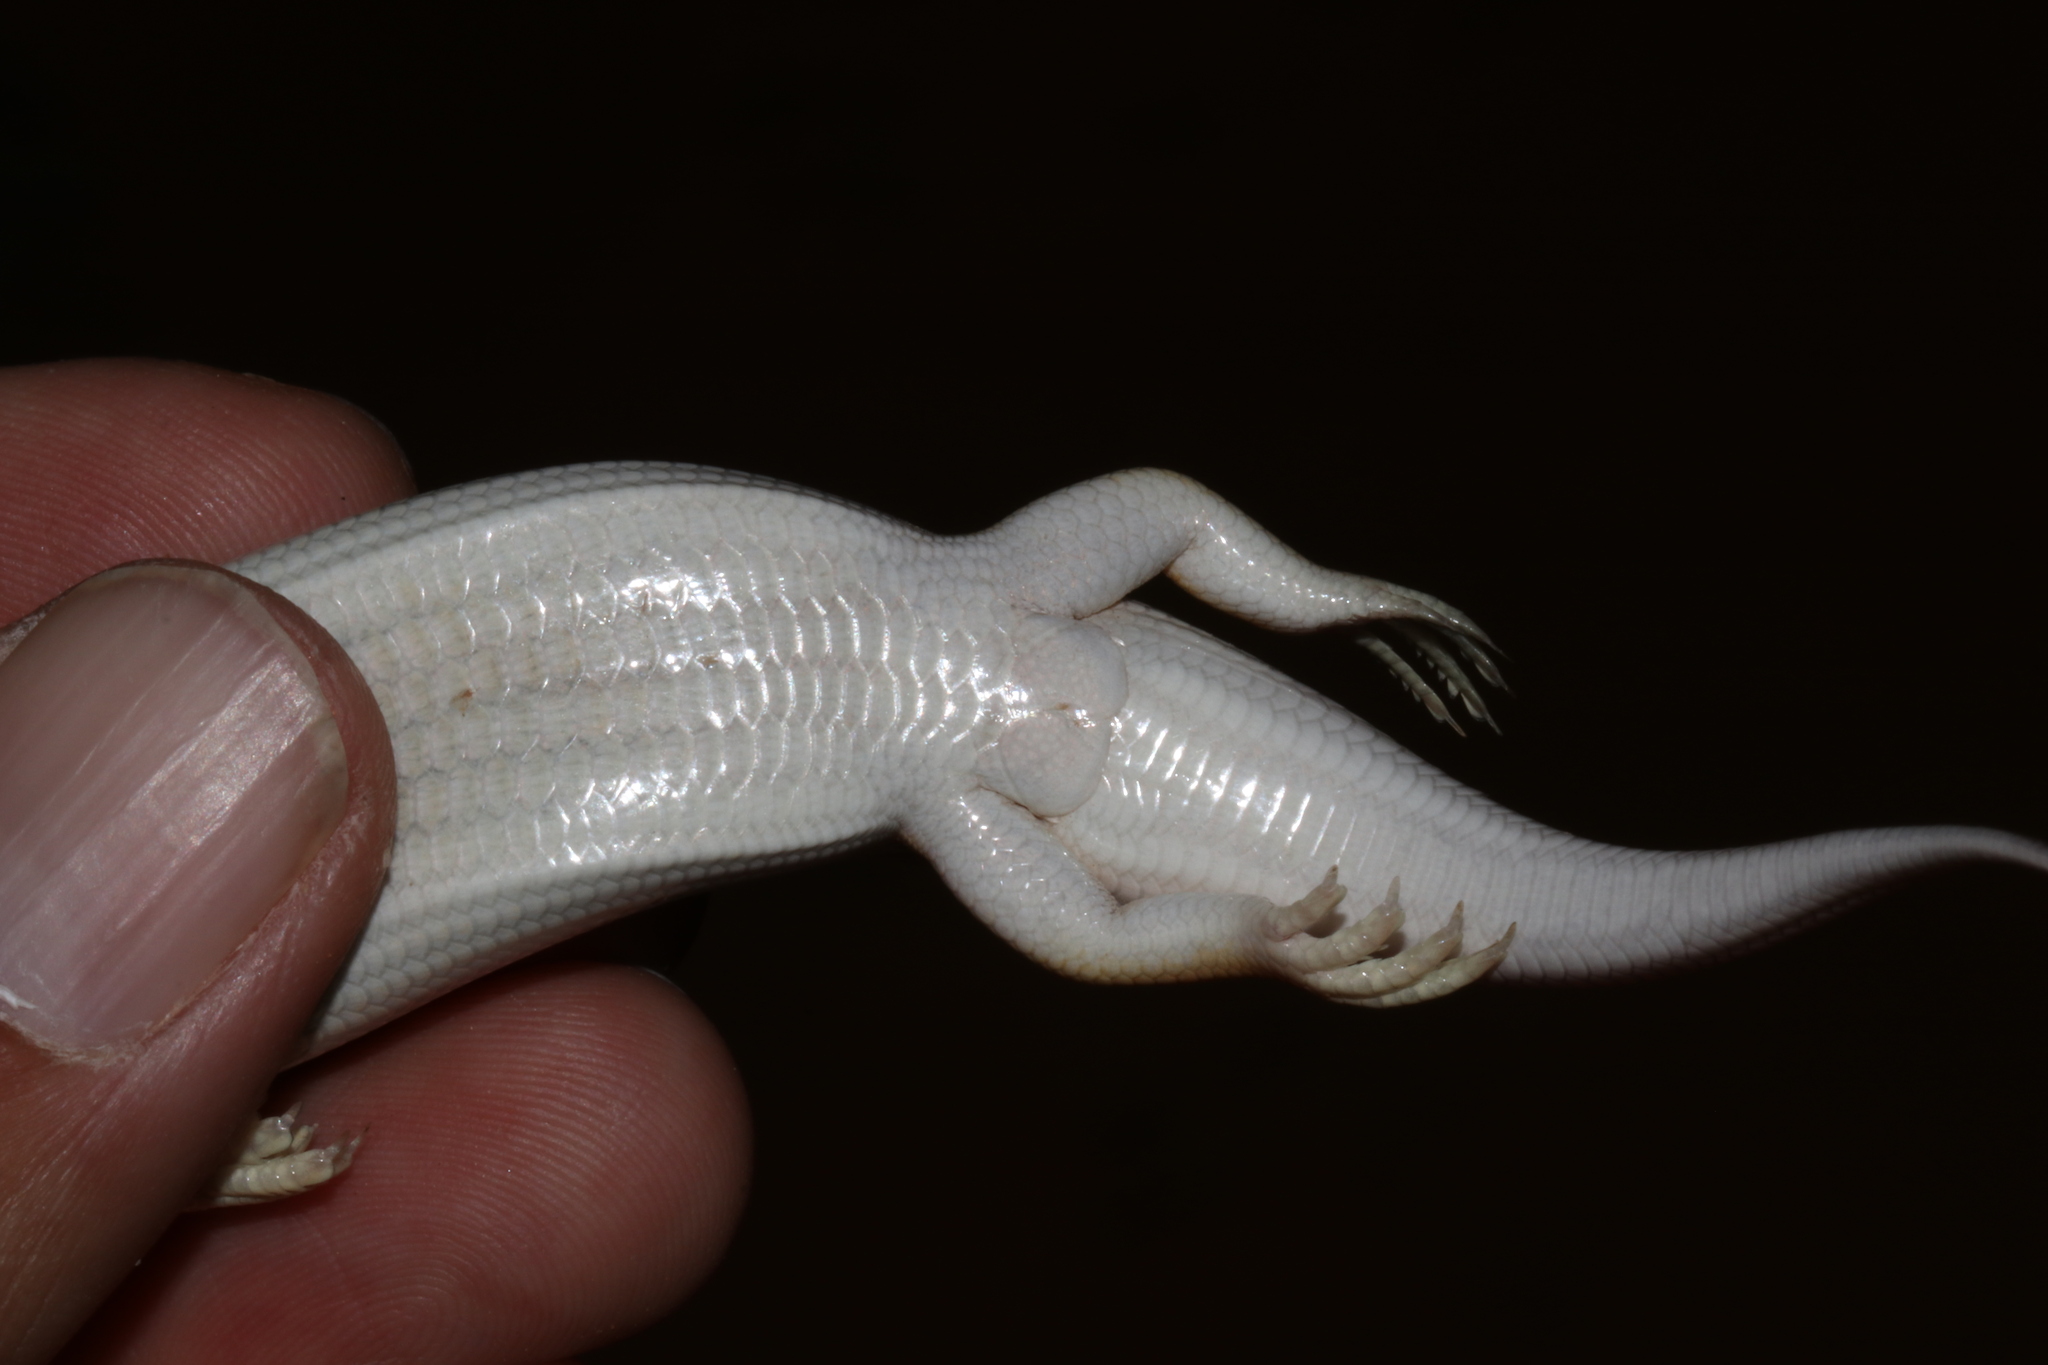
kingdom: Animalia
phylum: Chordata
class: Squamata
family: Scincidae
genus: Scincus
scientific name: Scincus mitranus
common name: Arabian sand skink
